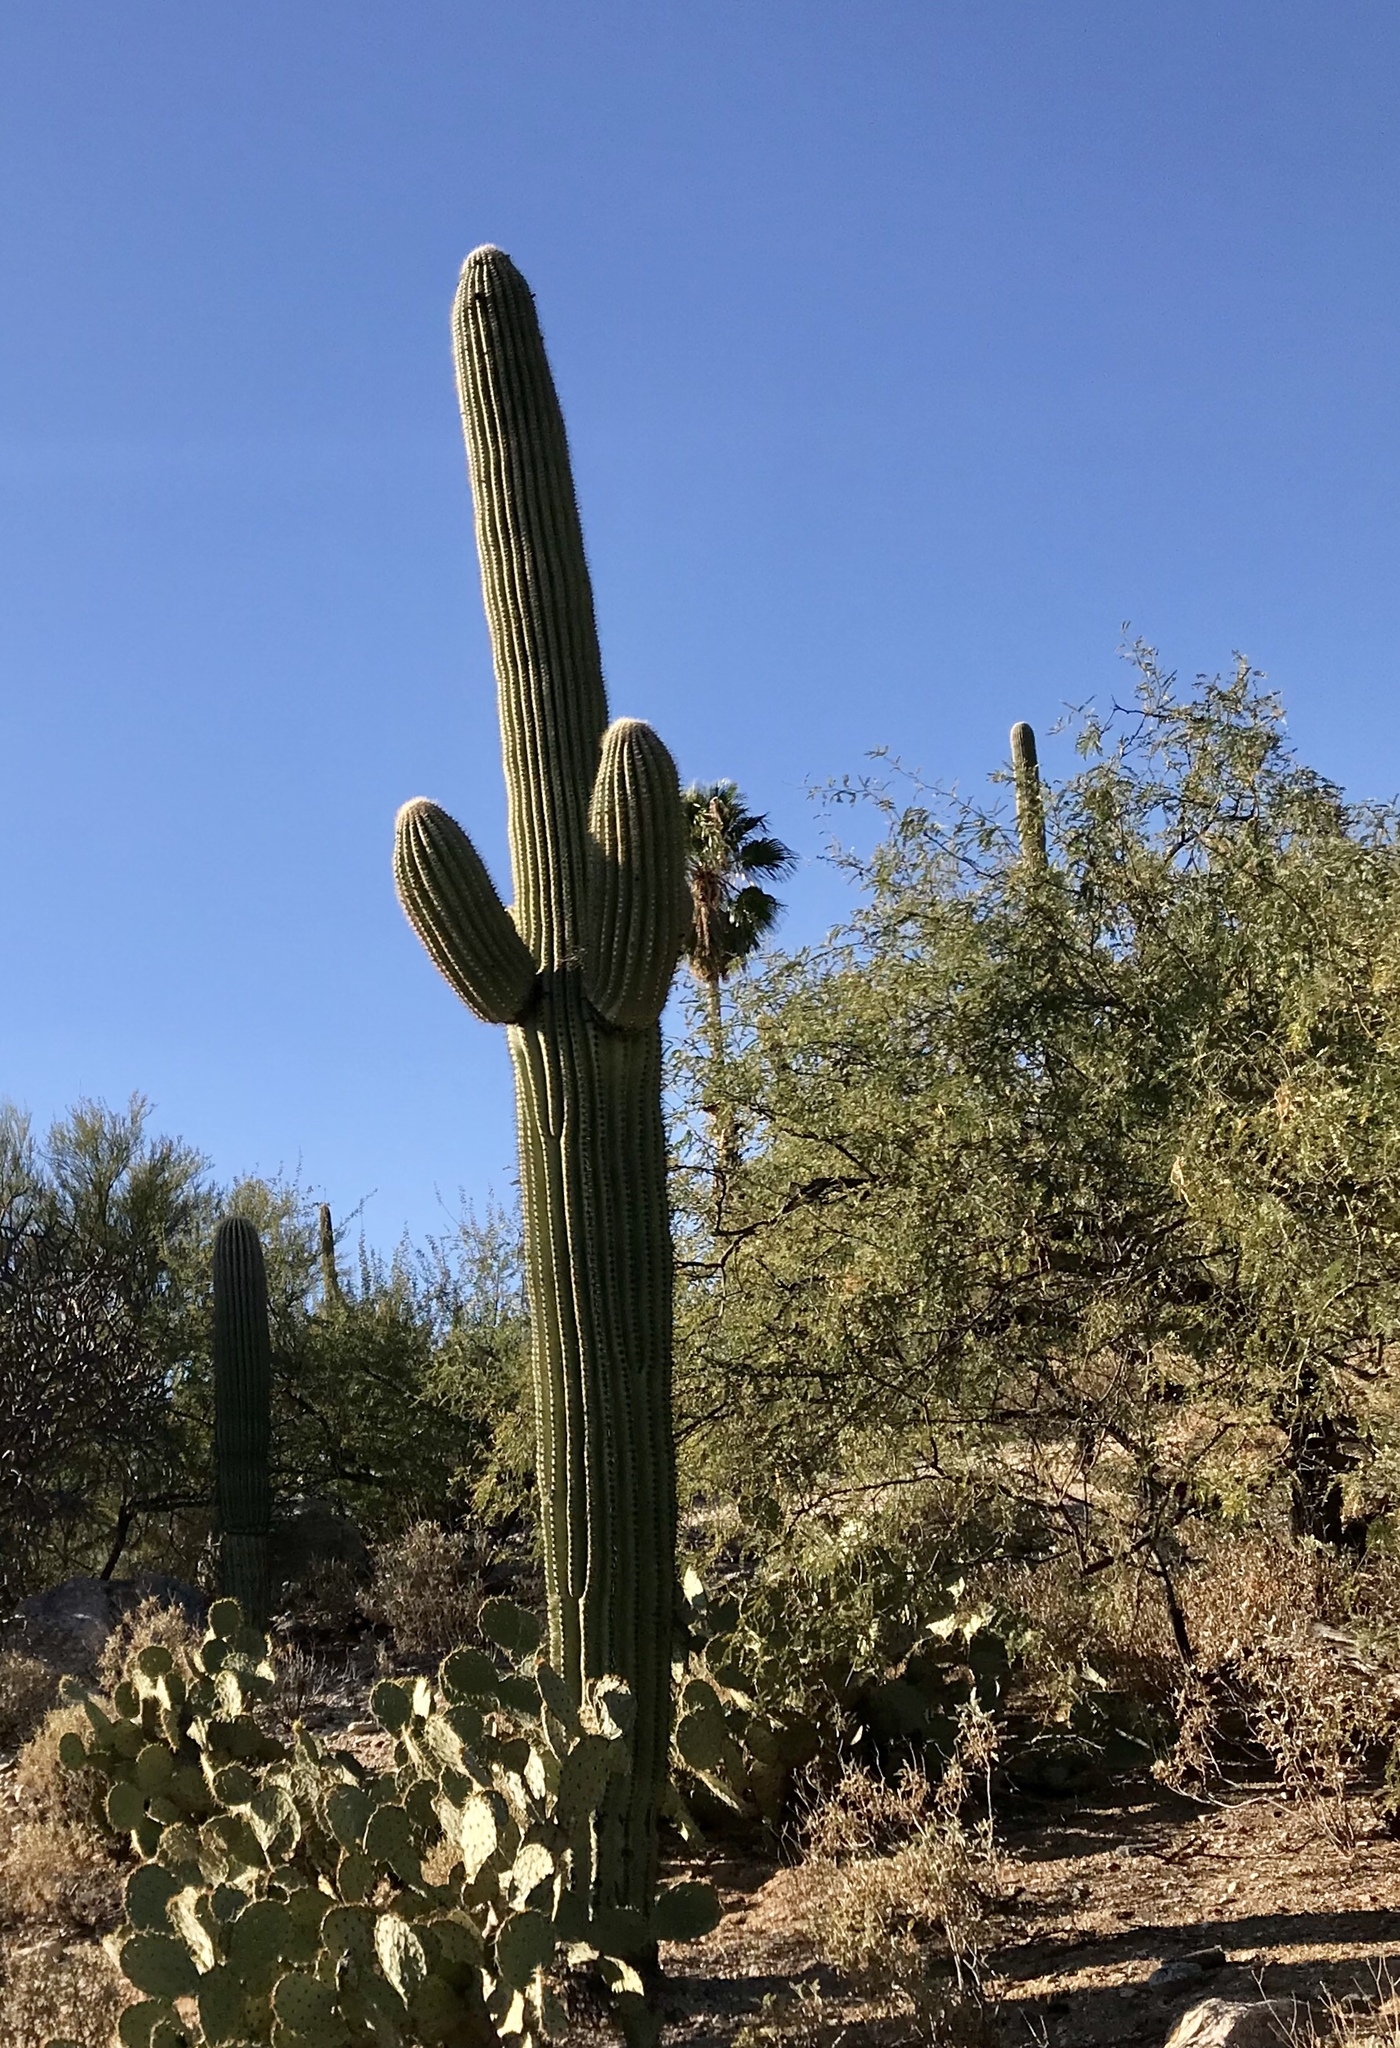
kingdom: Plantae
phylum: Tracheophyta
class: Magnoliopsida
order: Caryophyllales
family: Cactaceae
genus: Carnegiea
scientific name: Carnegiea gigantea
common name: Saguaro
